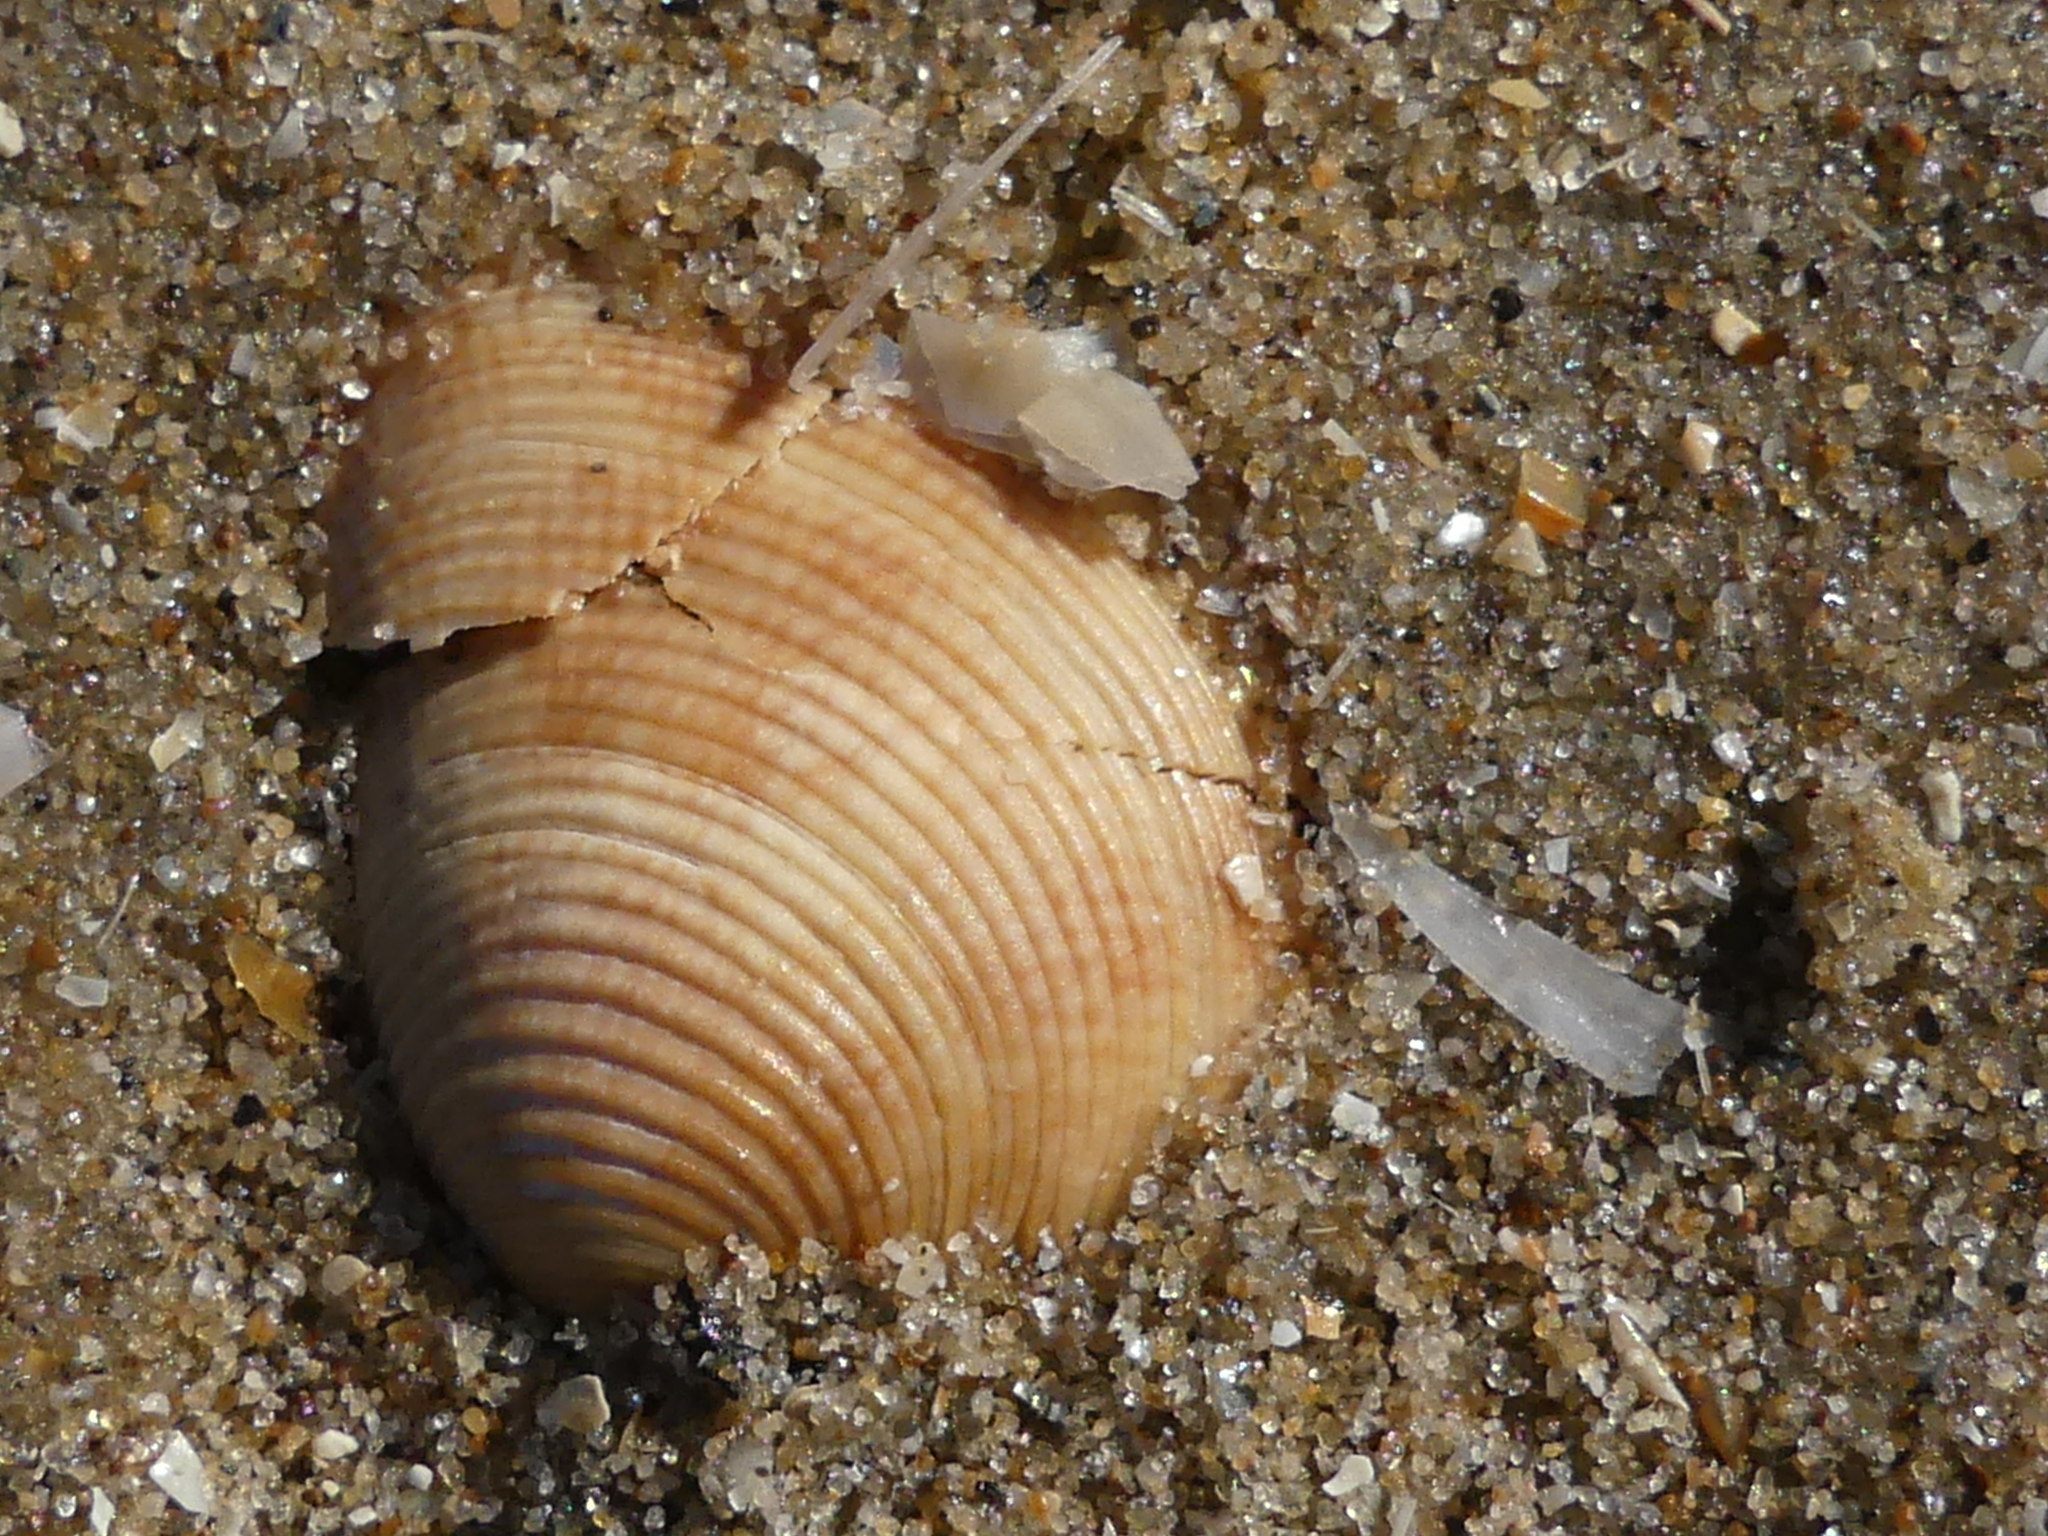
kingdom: Animalia
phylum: Mollusca
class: Bivalvia
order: Venerida
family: Veneridae
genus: Chamelea
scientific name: Chamelea striatula
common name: Striped venus
